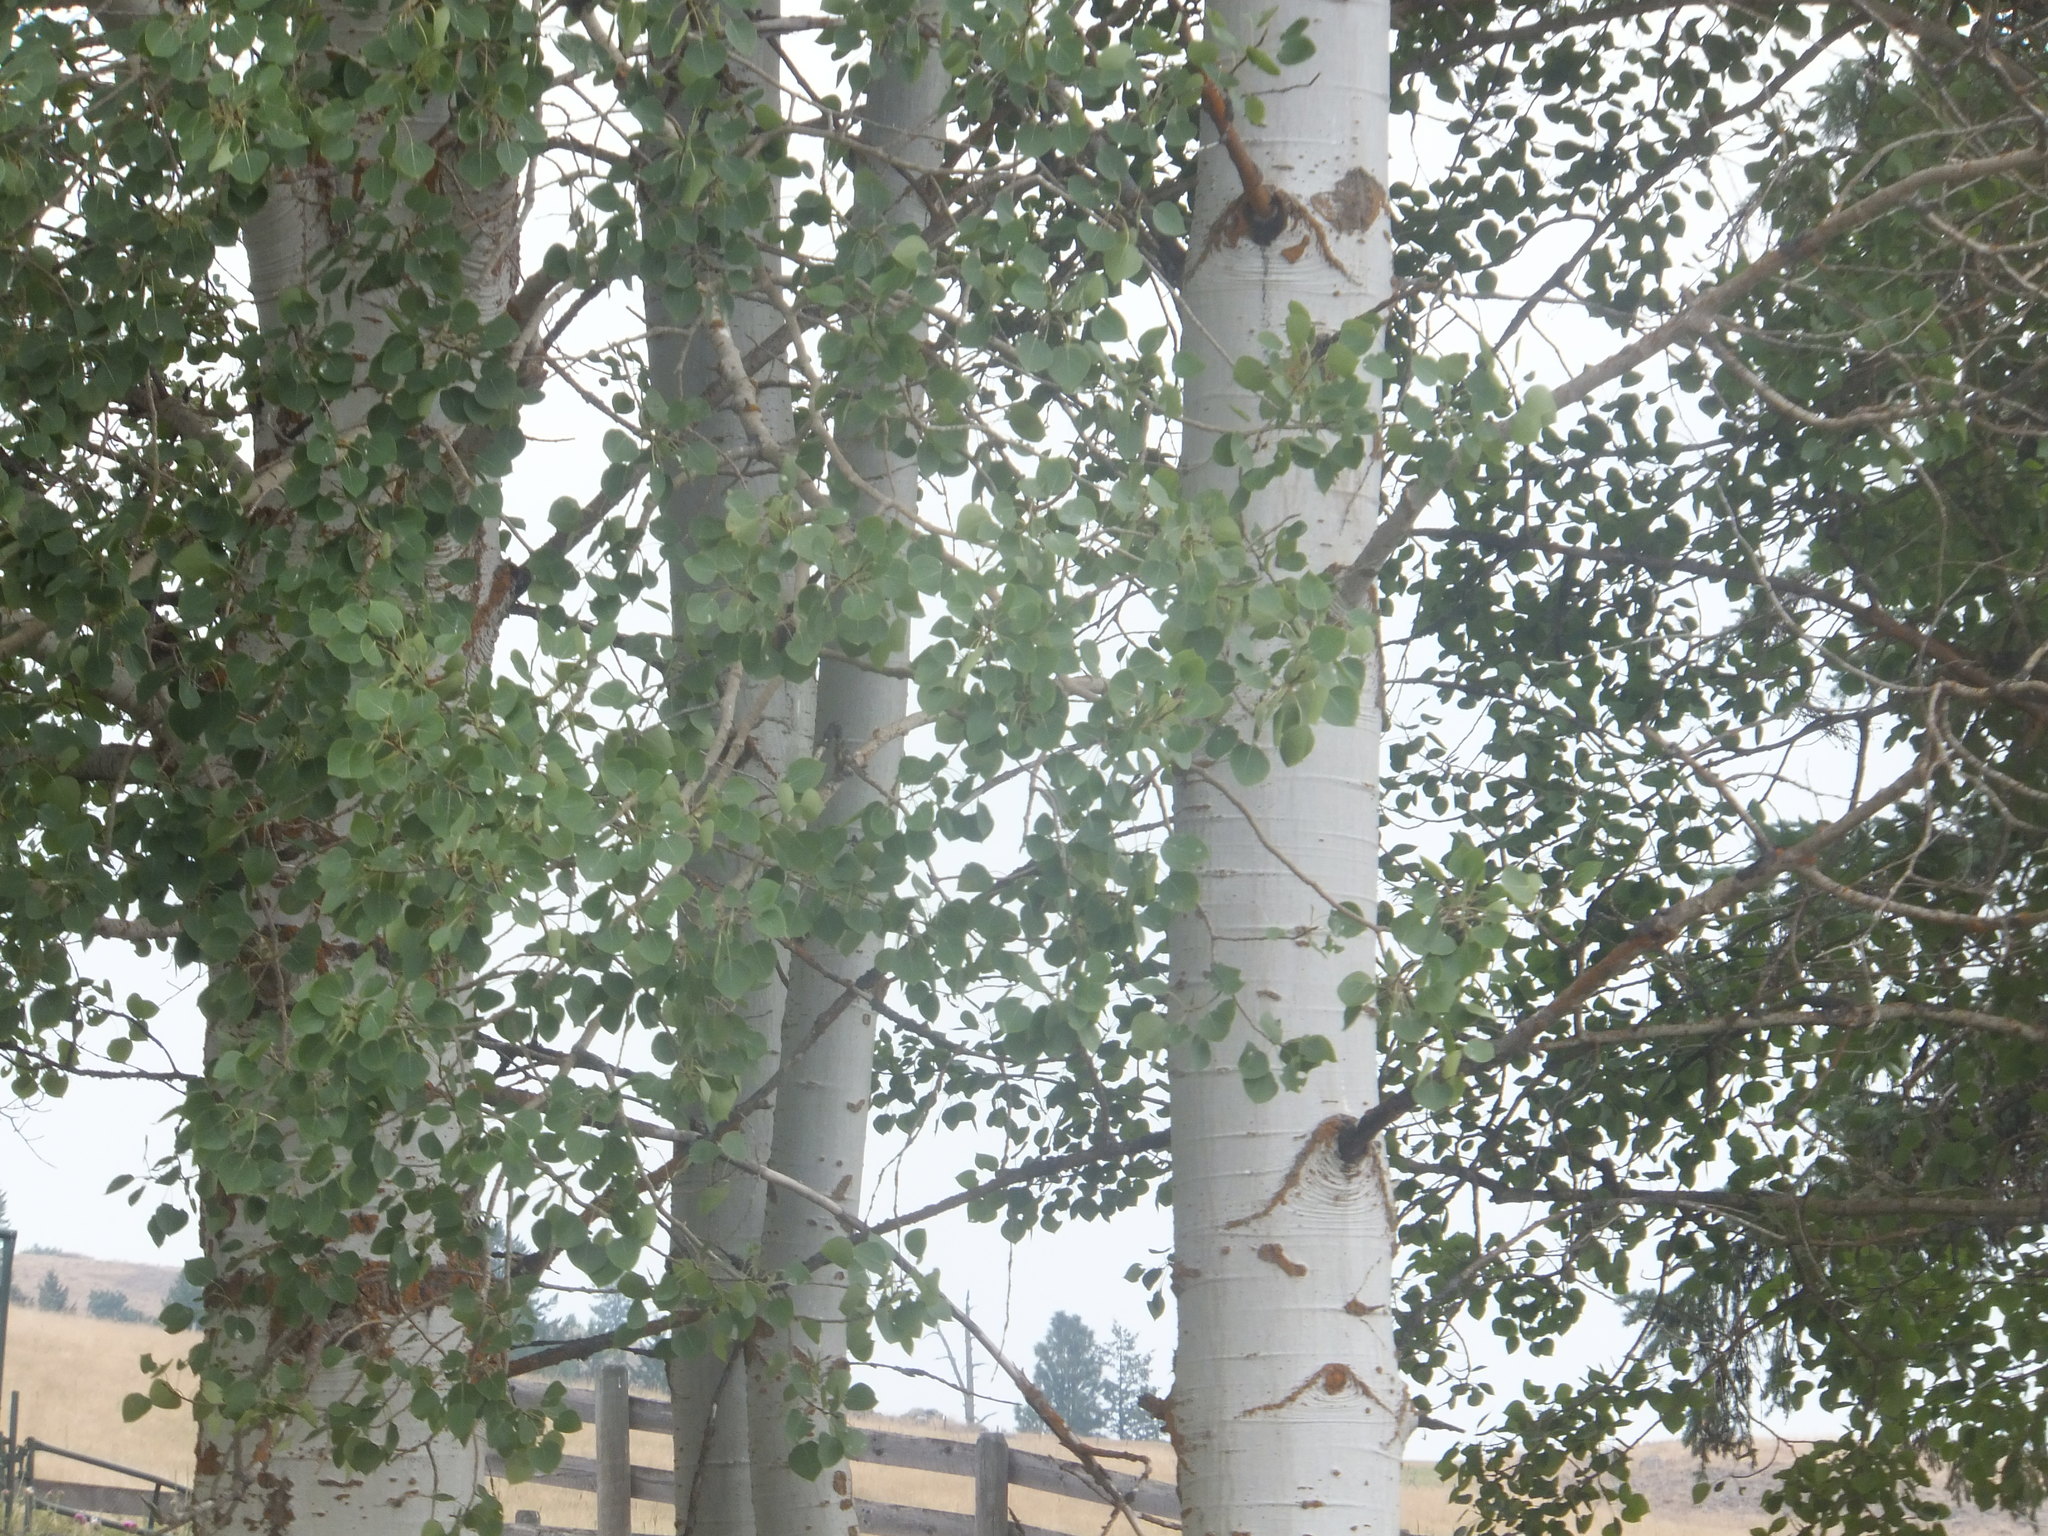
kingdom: Plantae
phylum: Tracheophyta
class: Magnoliopsida
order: Malpighiales
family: Salicaceae
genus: Populus
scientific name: Populus tremuloides
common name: Quaking aspen
